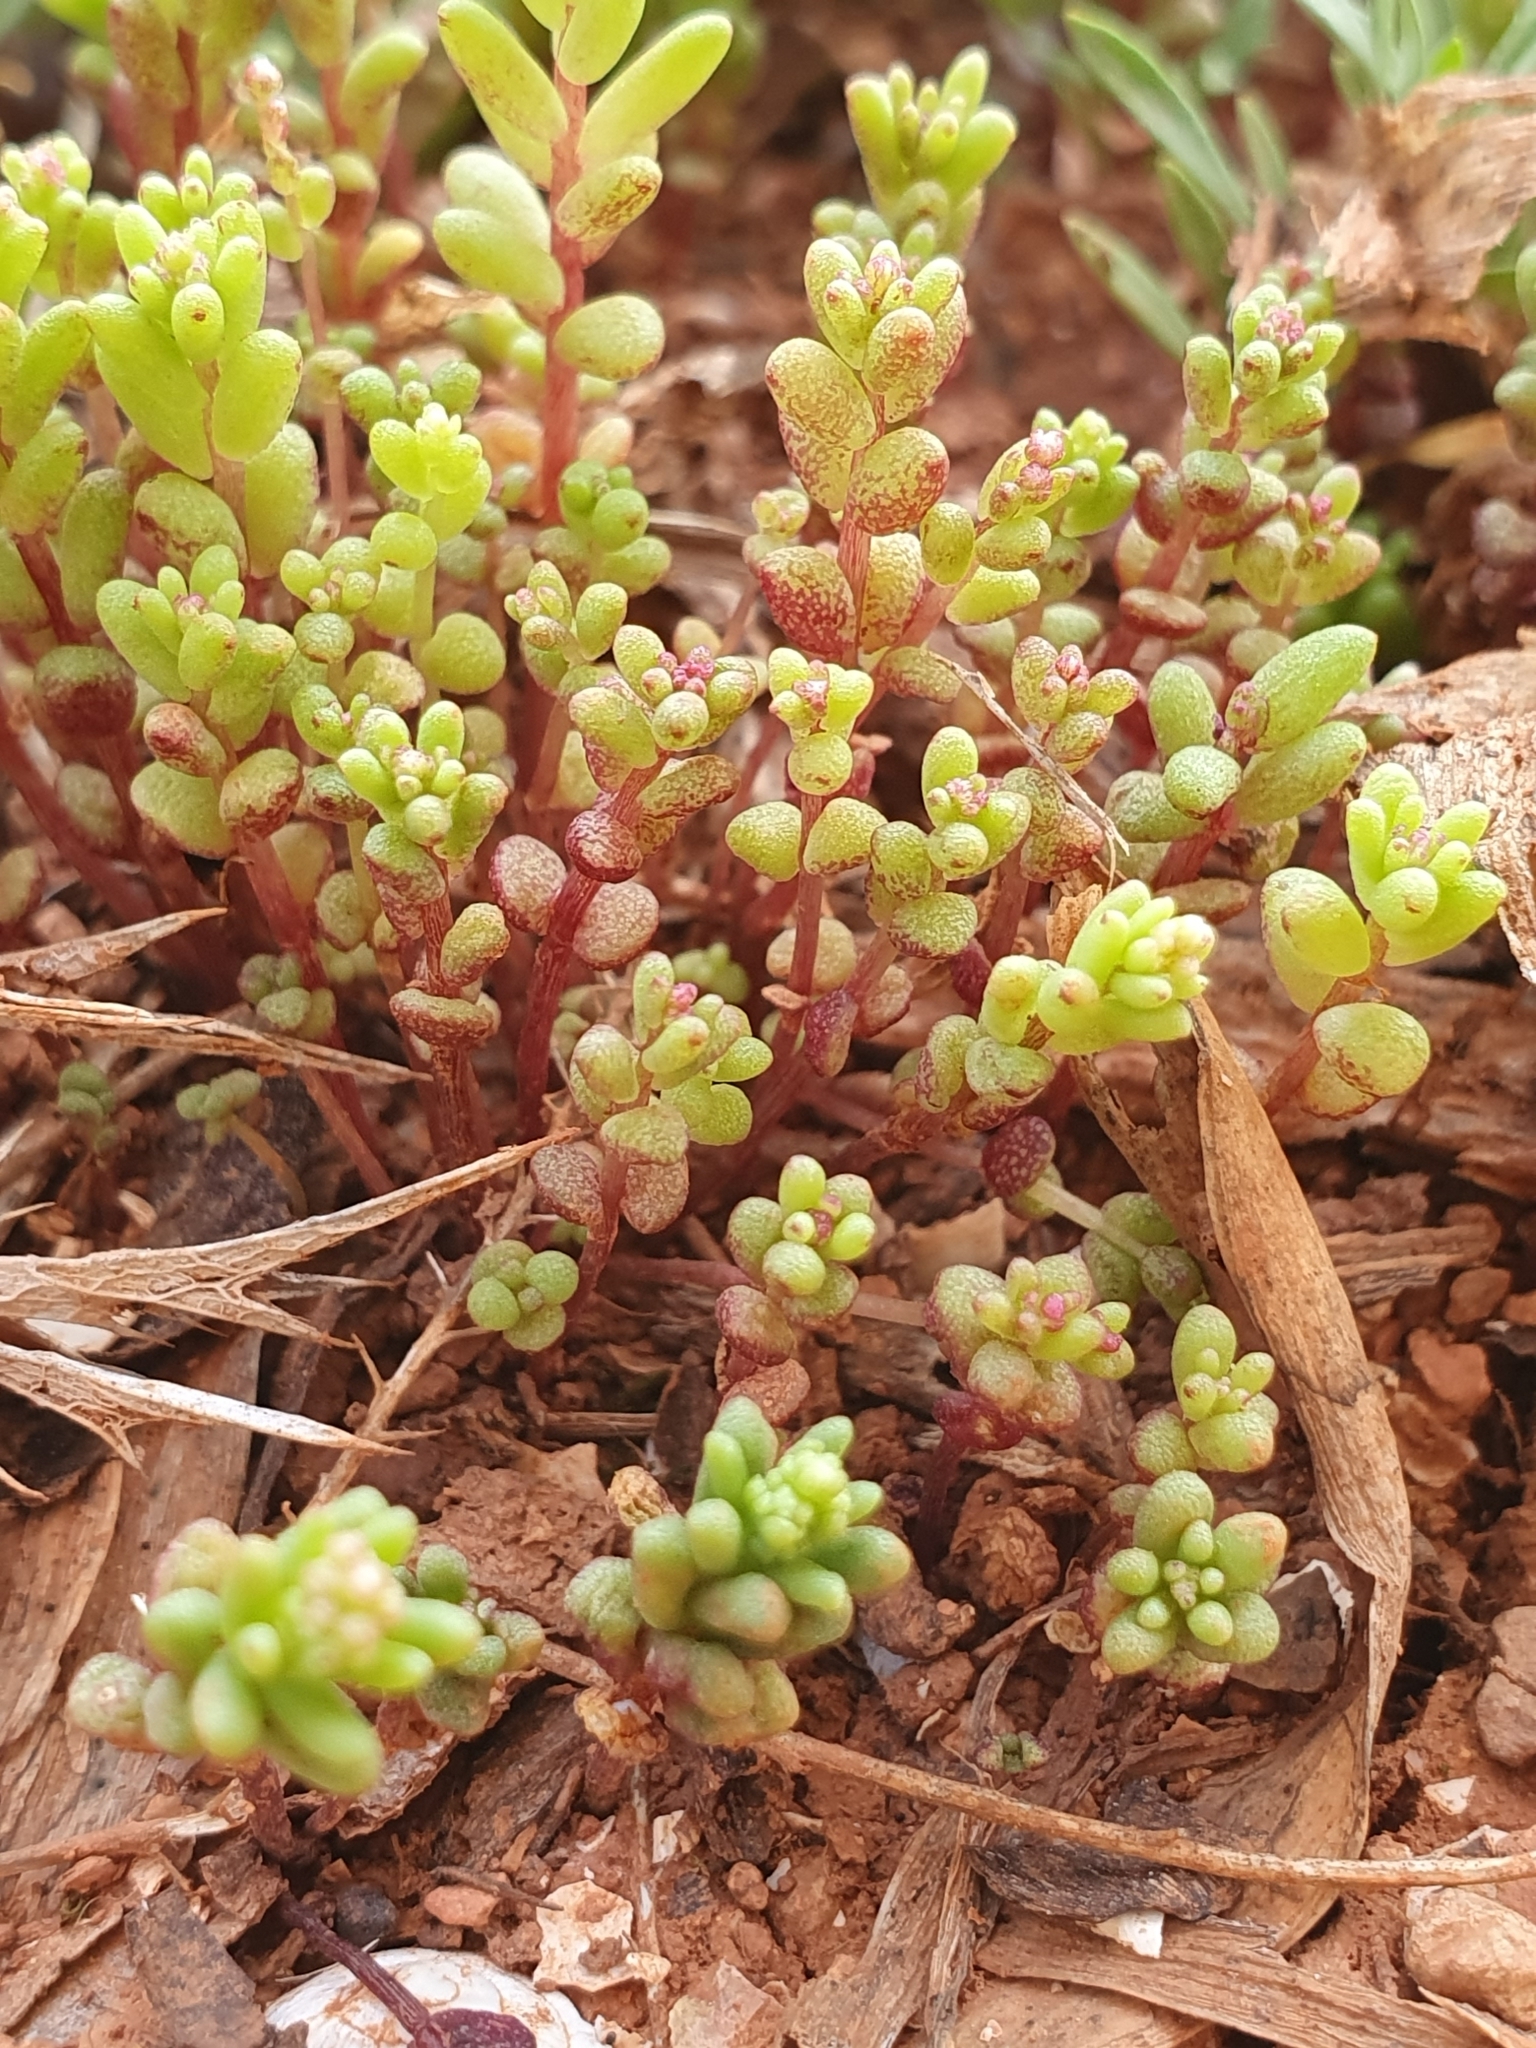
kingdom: Plantae
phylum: Tracheophyta
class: Magnoliopsida
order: Saxifragales
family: Crassulaceae
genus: Sedum
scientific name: Sedum caeruleum
